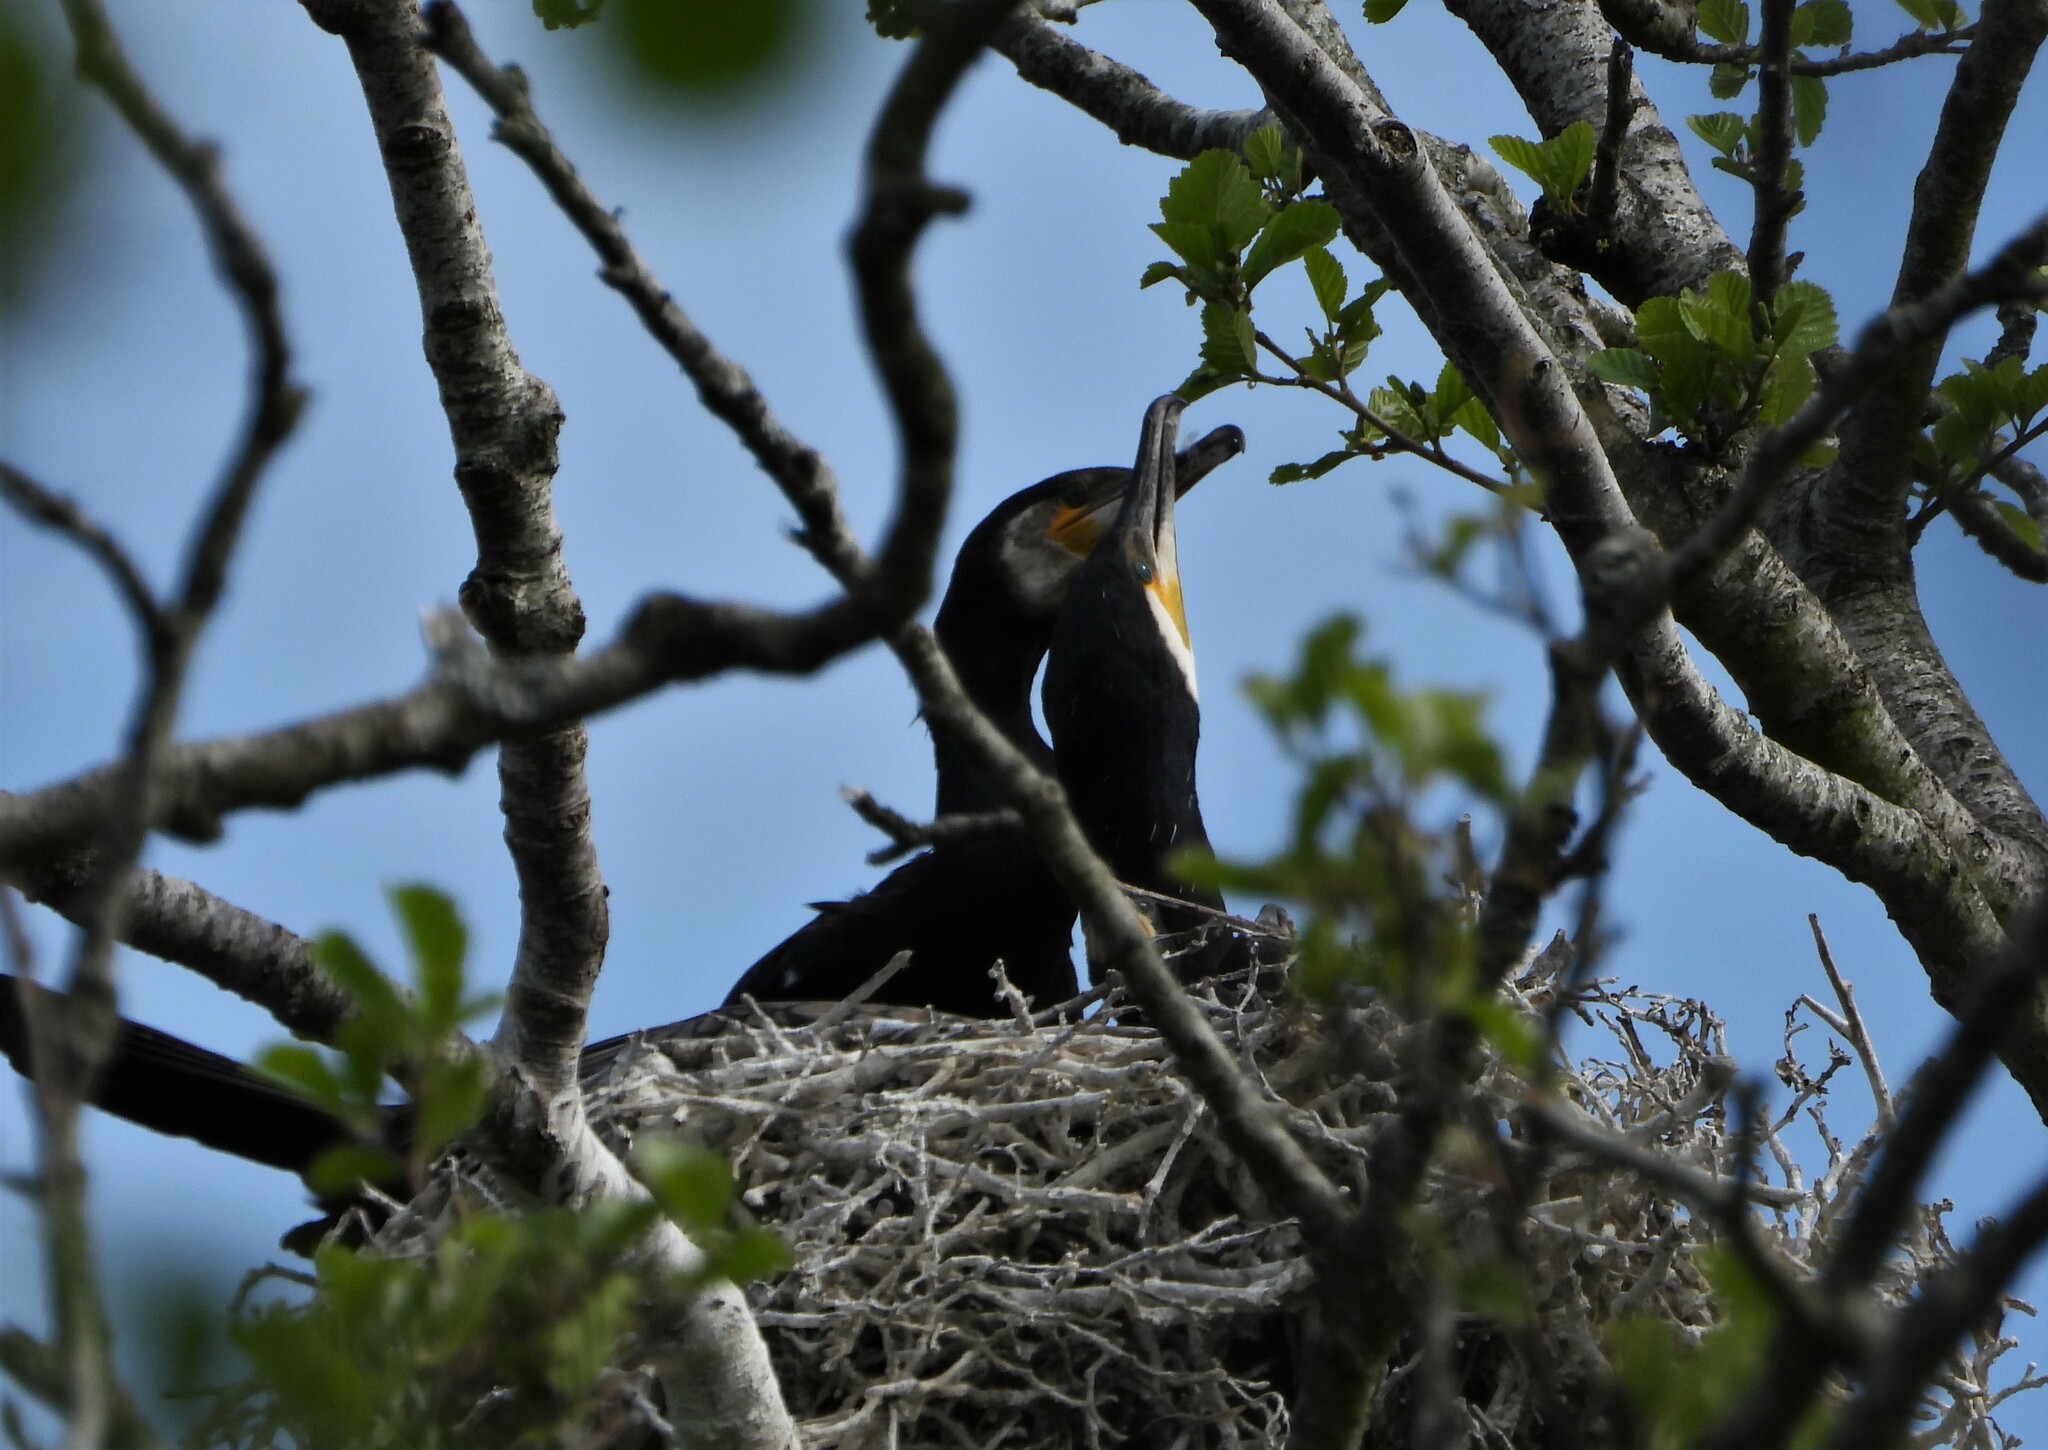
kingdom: Animalia
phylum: Chordata
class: Aves
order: Suliformes
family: Phalacrocoracidae
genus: Phalacrocorax
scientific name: Phalacrocorax carbo
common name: Great cormorant
